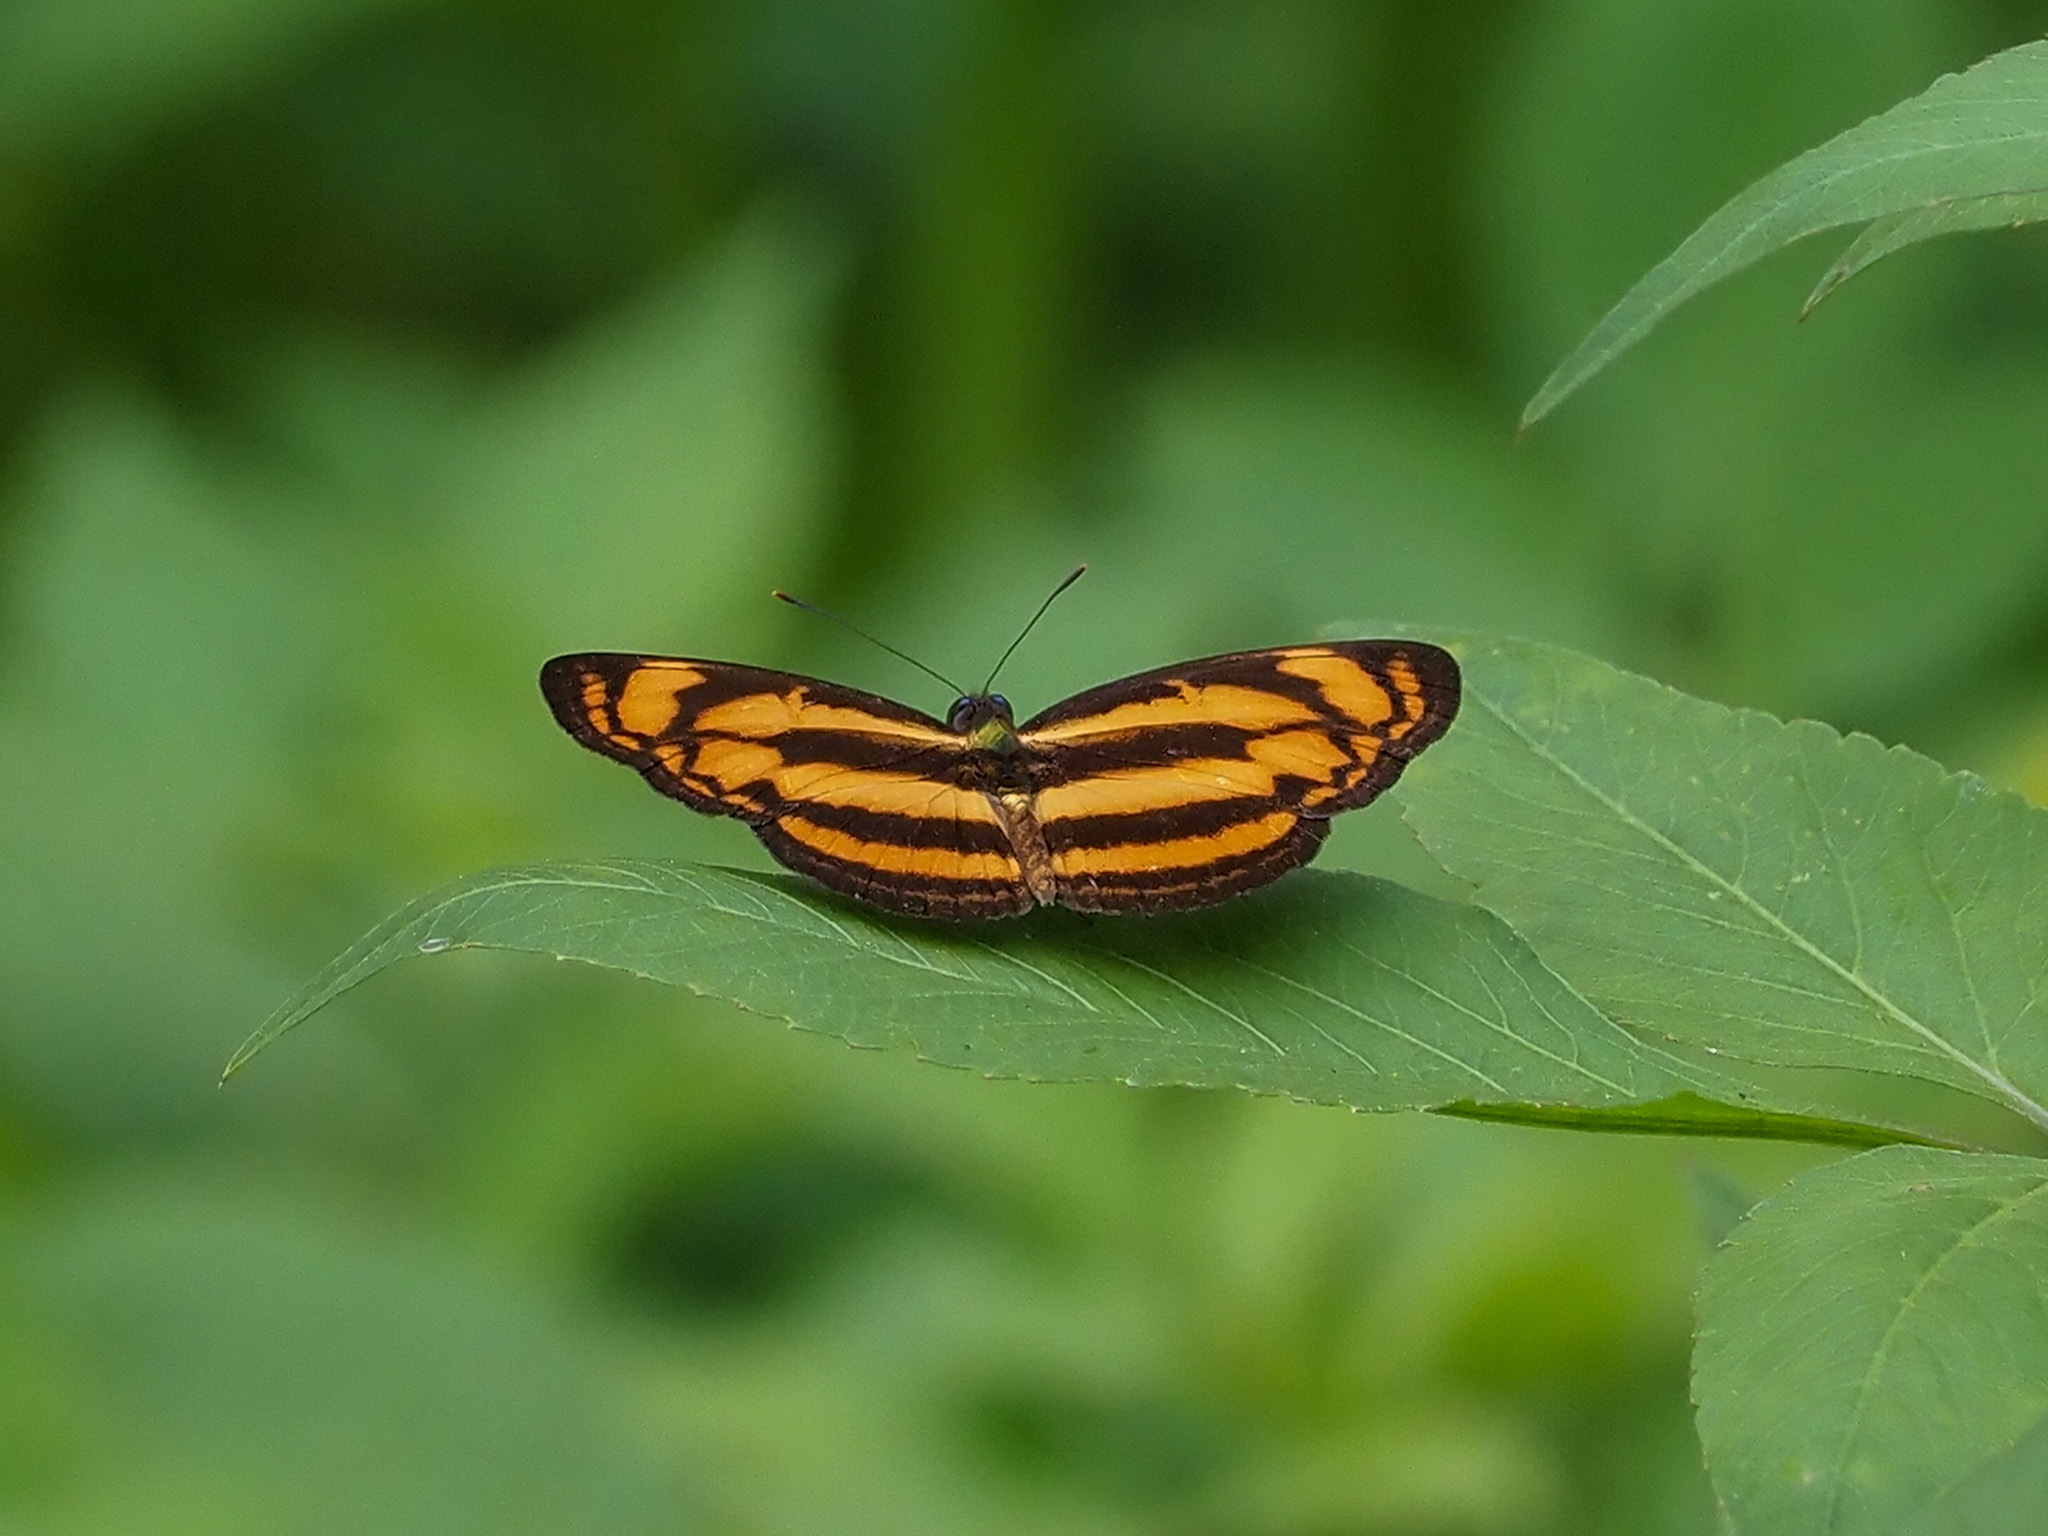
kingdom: Animalia
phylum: Arthropoda
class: Insecta
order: Lepidoptera
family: Nymphalidae
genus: Lasippa
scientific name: Lasippa tiga
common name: Malayan lascar
